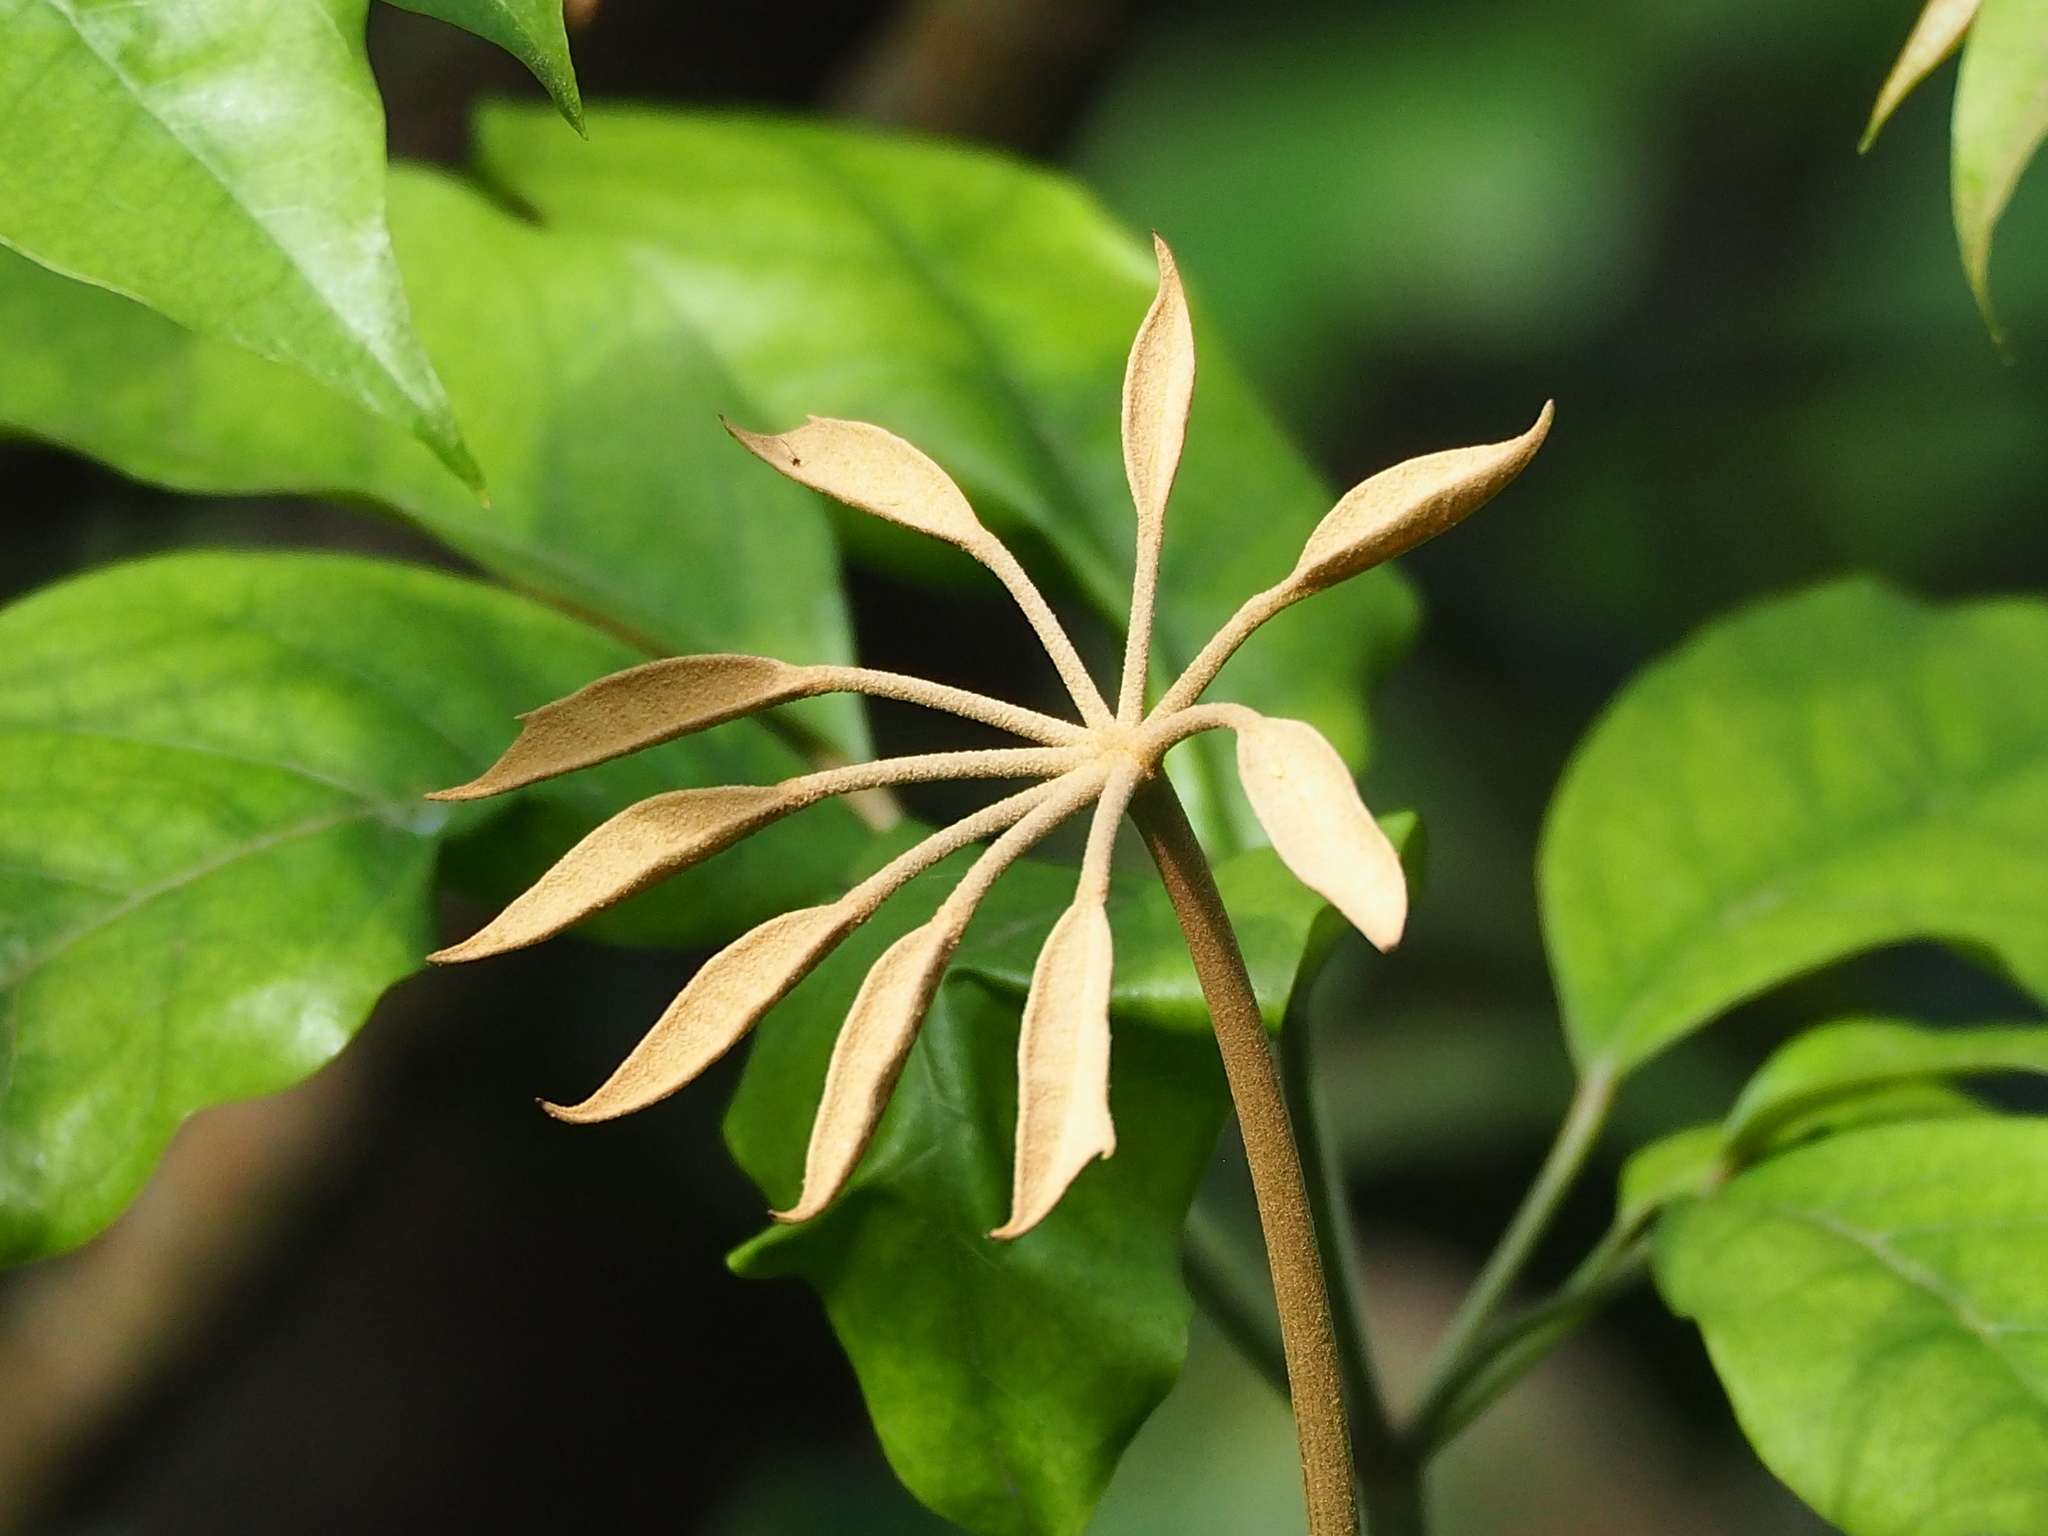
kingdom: Plantae
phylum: Tracheophyta
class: Magnoliopsida
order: Apiales
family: Araliaceae
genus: Heptapleurum
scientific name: Heptapleurum heptaphyllum
